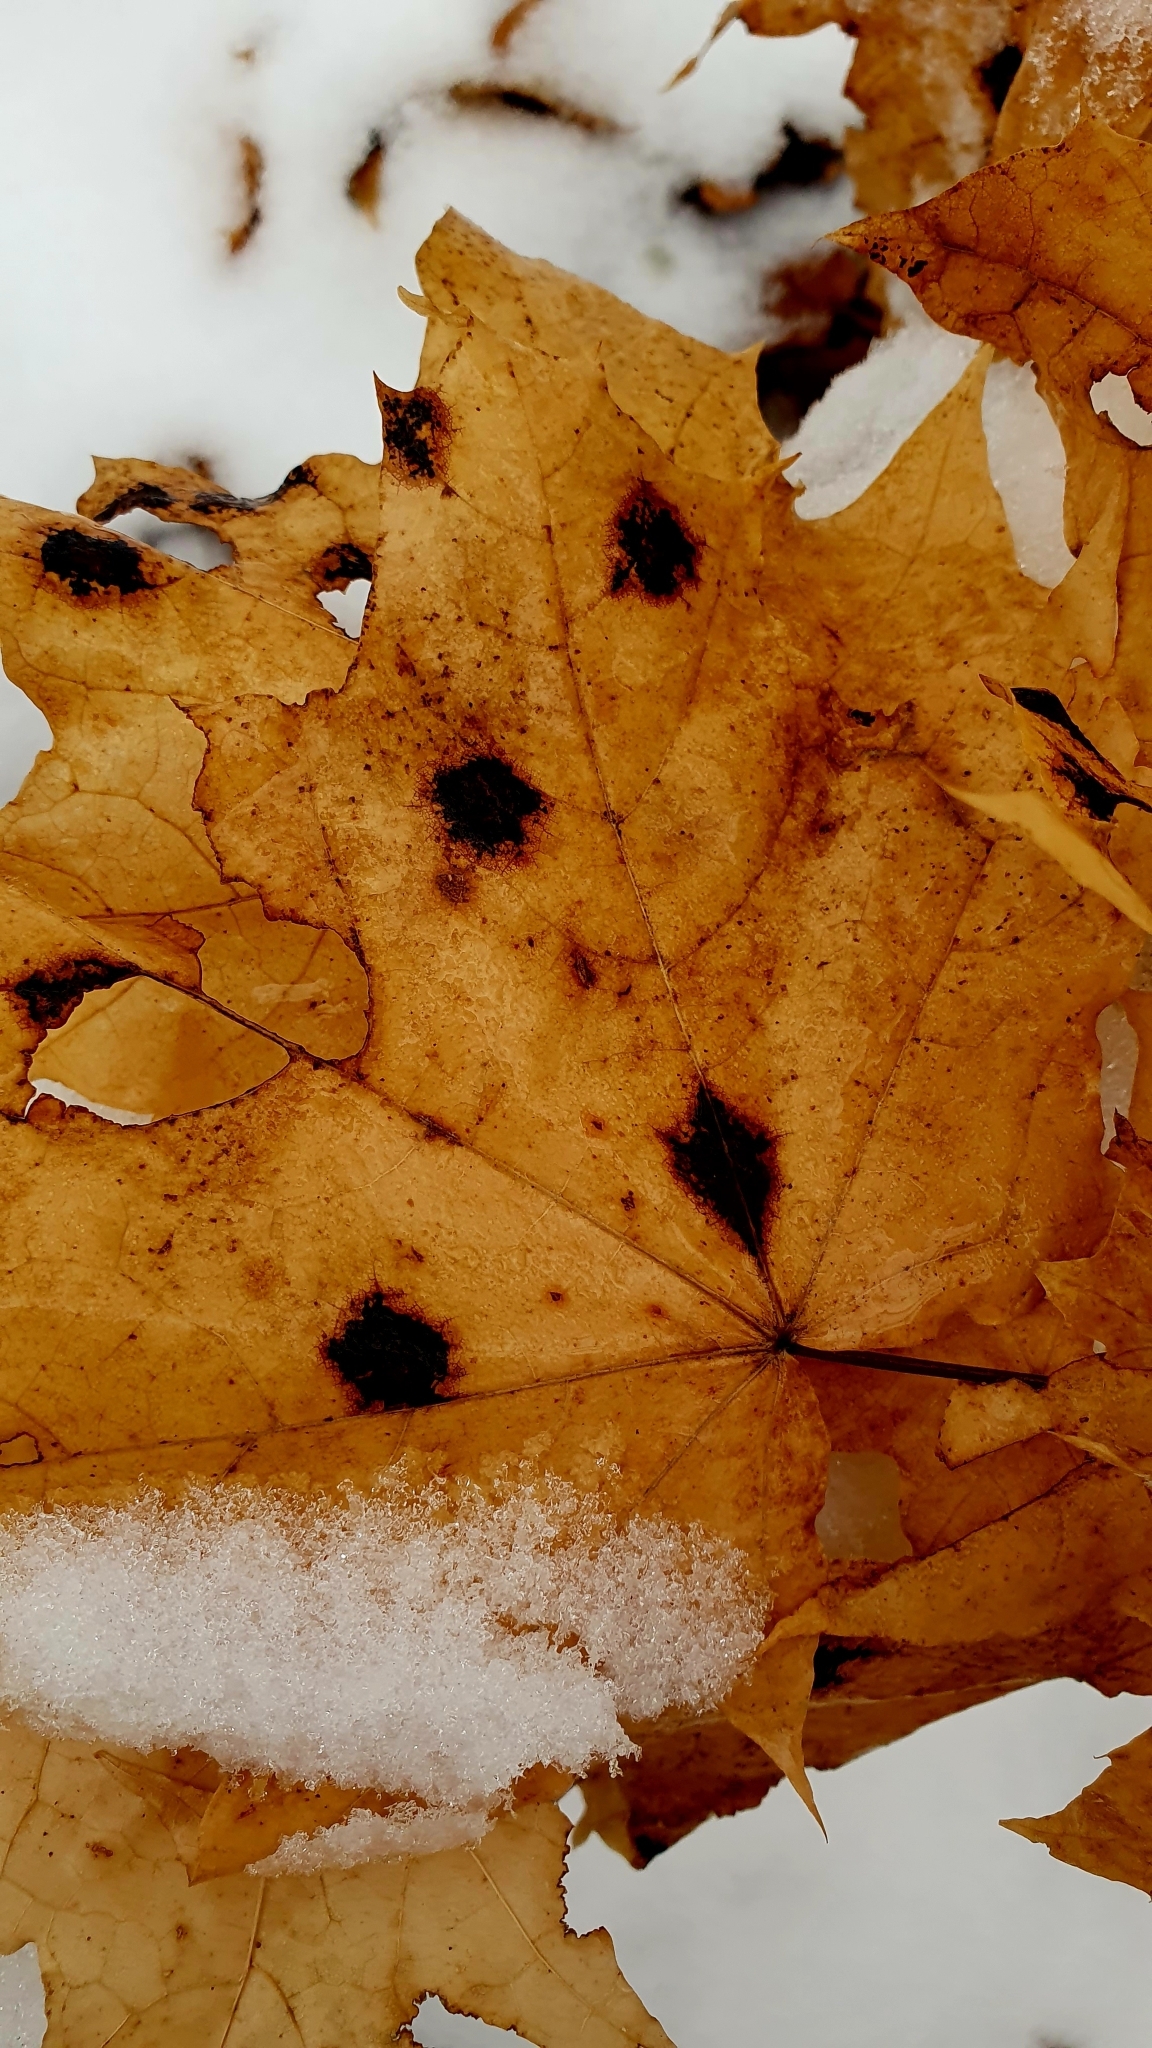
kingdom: Fungi
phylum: Ascomycota
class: Leotiomycetes
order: Rhytismatales
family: Rhytismataceae
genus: Rhytisma
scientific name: Rhytisma acerinum
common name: European tar spot
